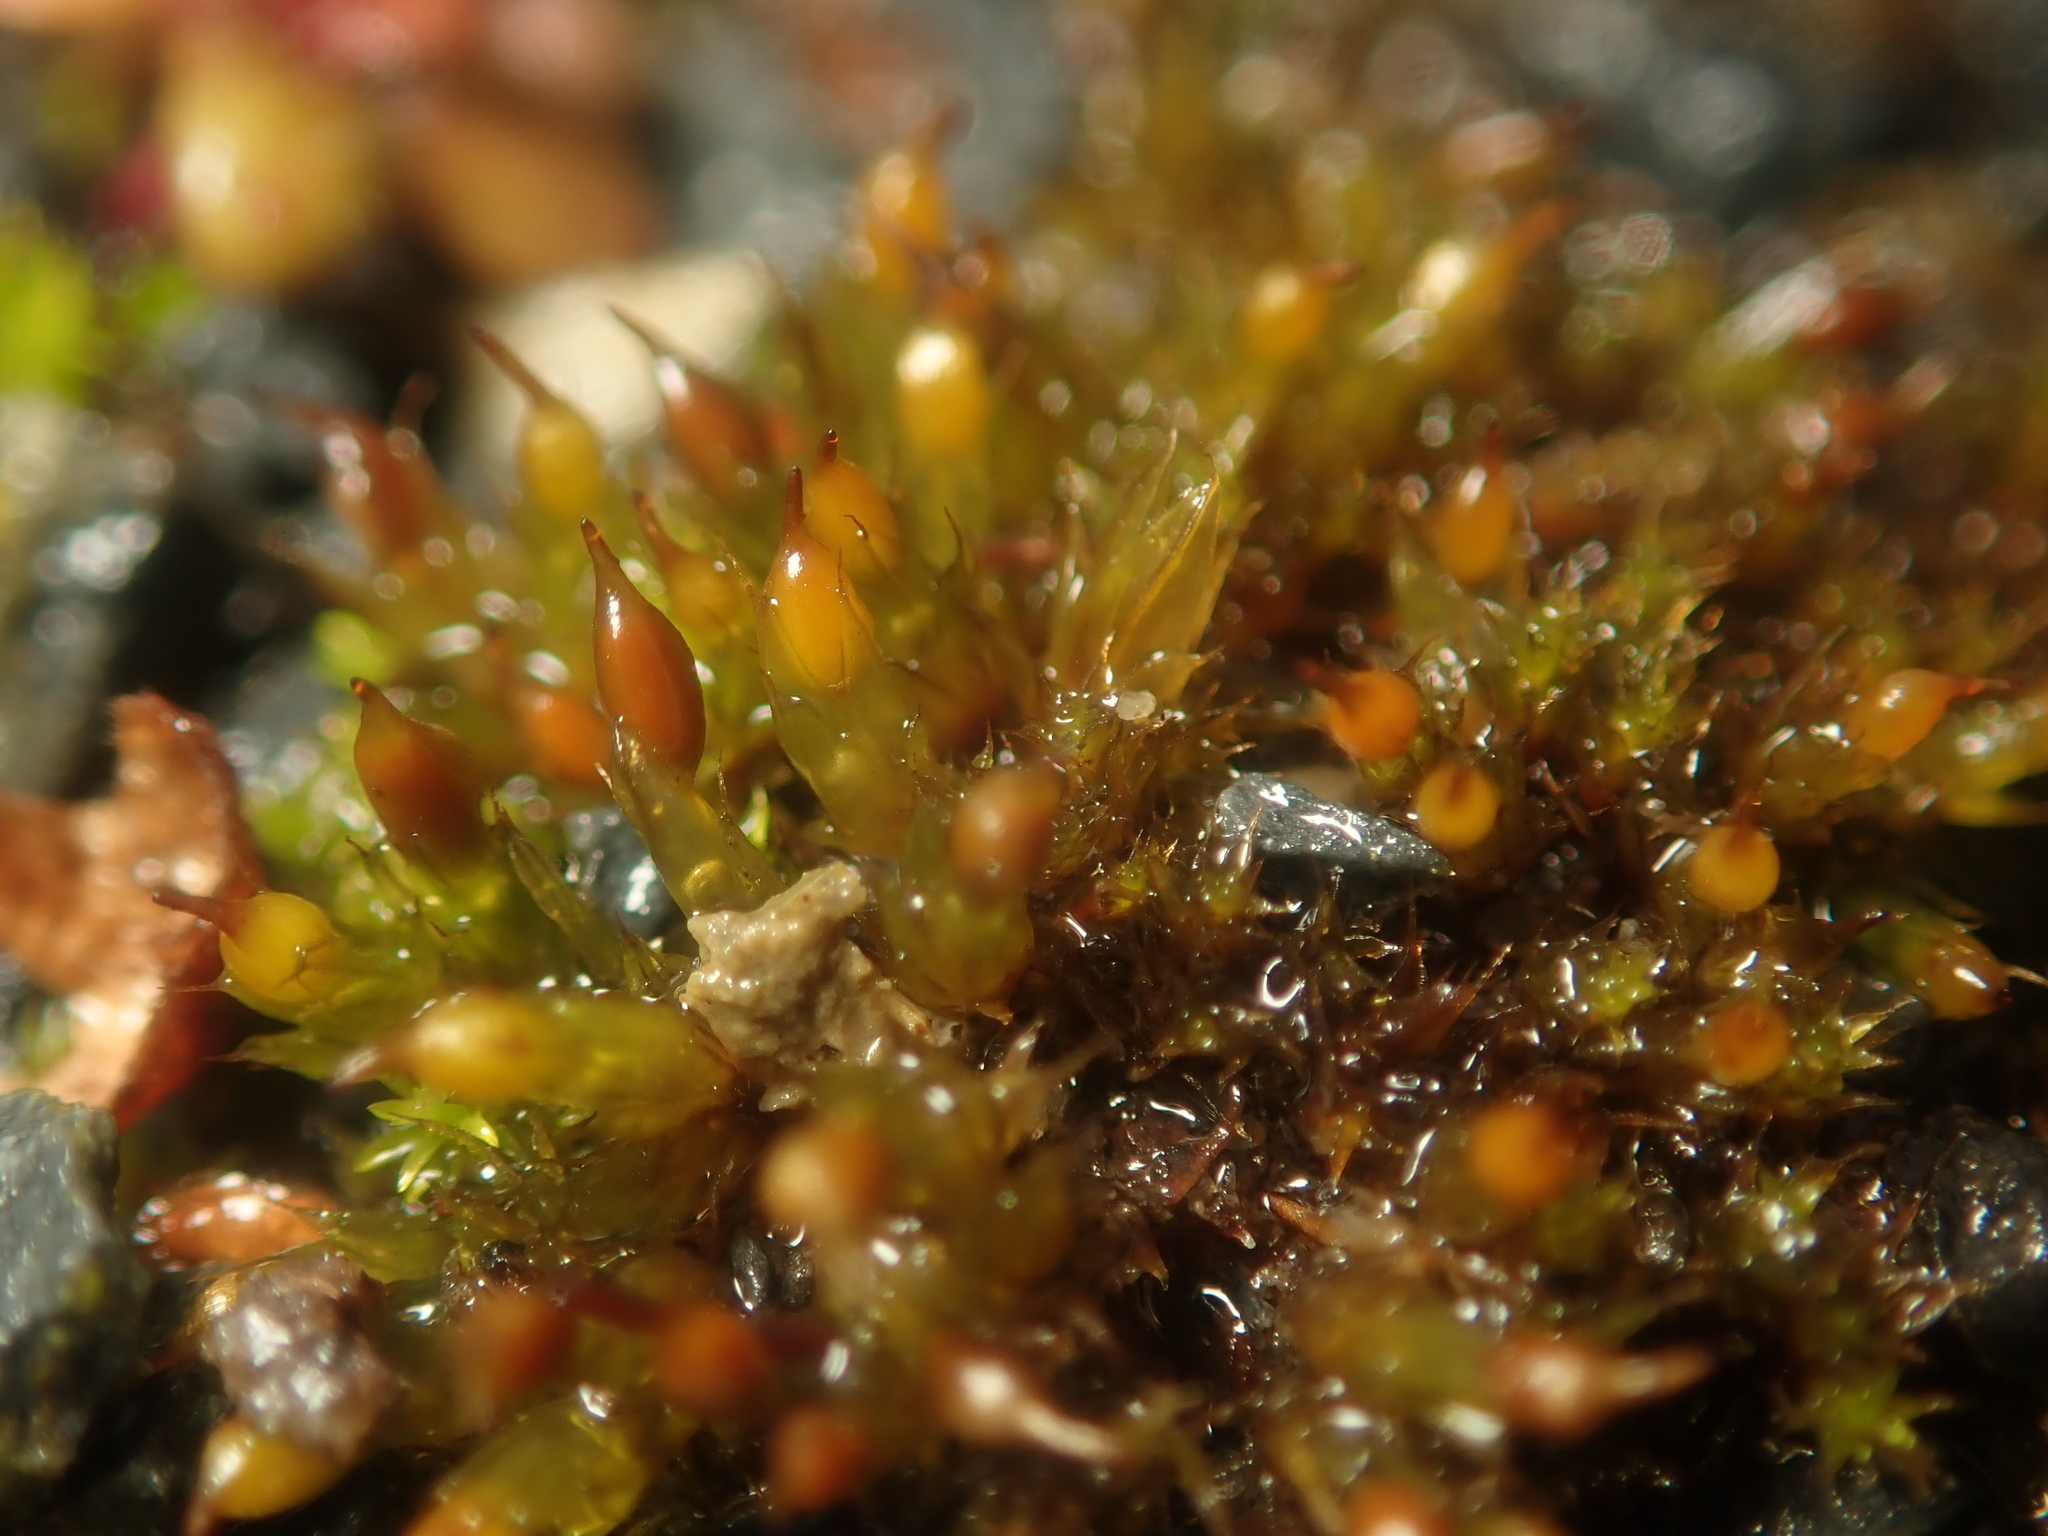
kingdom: Plantae
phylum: Bryophyta
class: Bryopsida
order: Pottiales
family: Pottiaceae
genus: Tortula
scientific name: Tortula protobryoides
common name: Tall pottia
